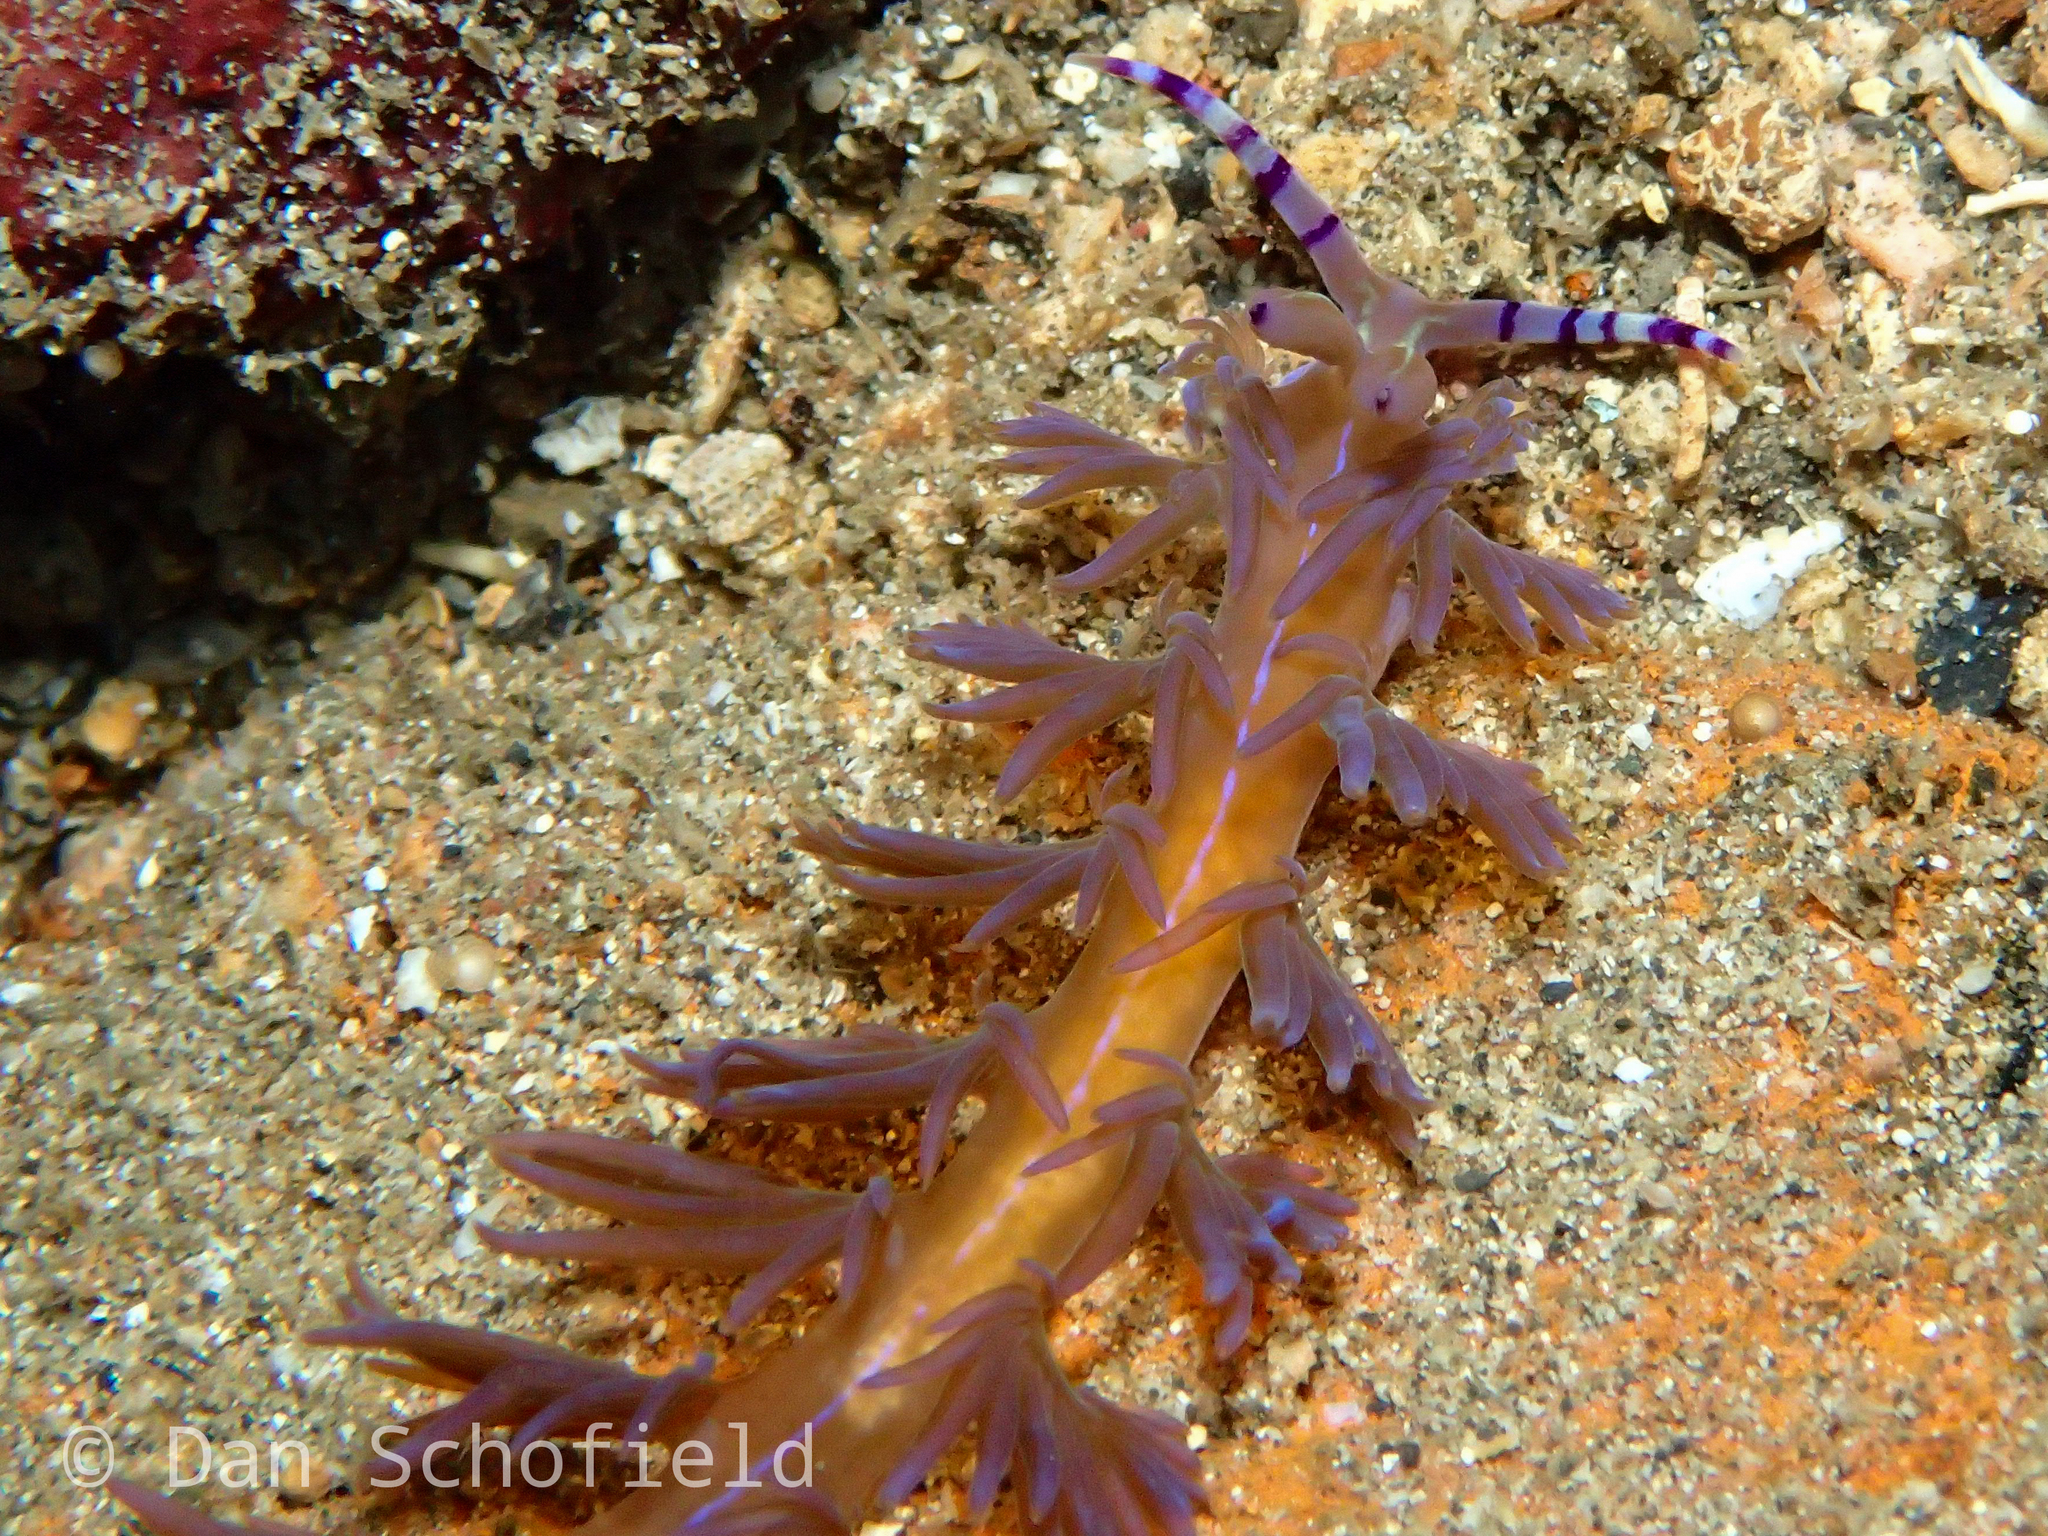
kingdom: Animalia
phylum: Mollusca
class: Gastropoda
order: Nudibranchia
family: Facelinidae
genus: Pteraeolidia
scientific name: Pteraeolidia semperi
